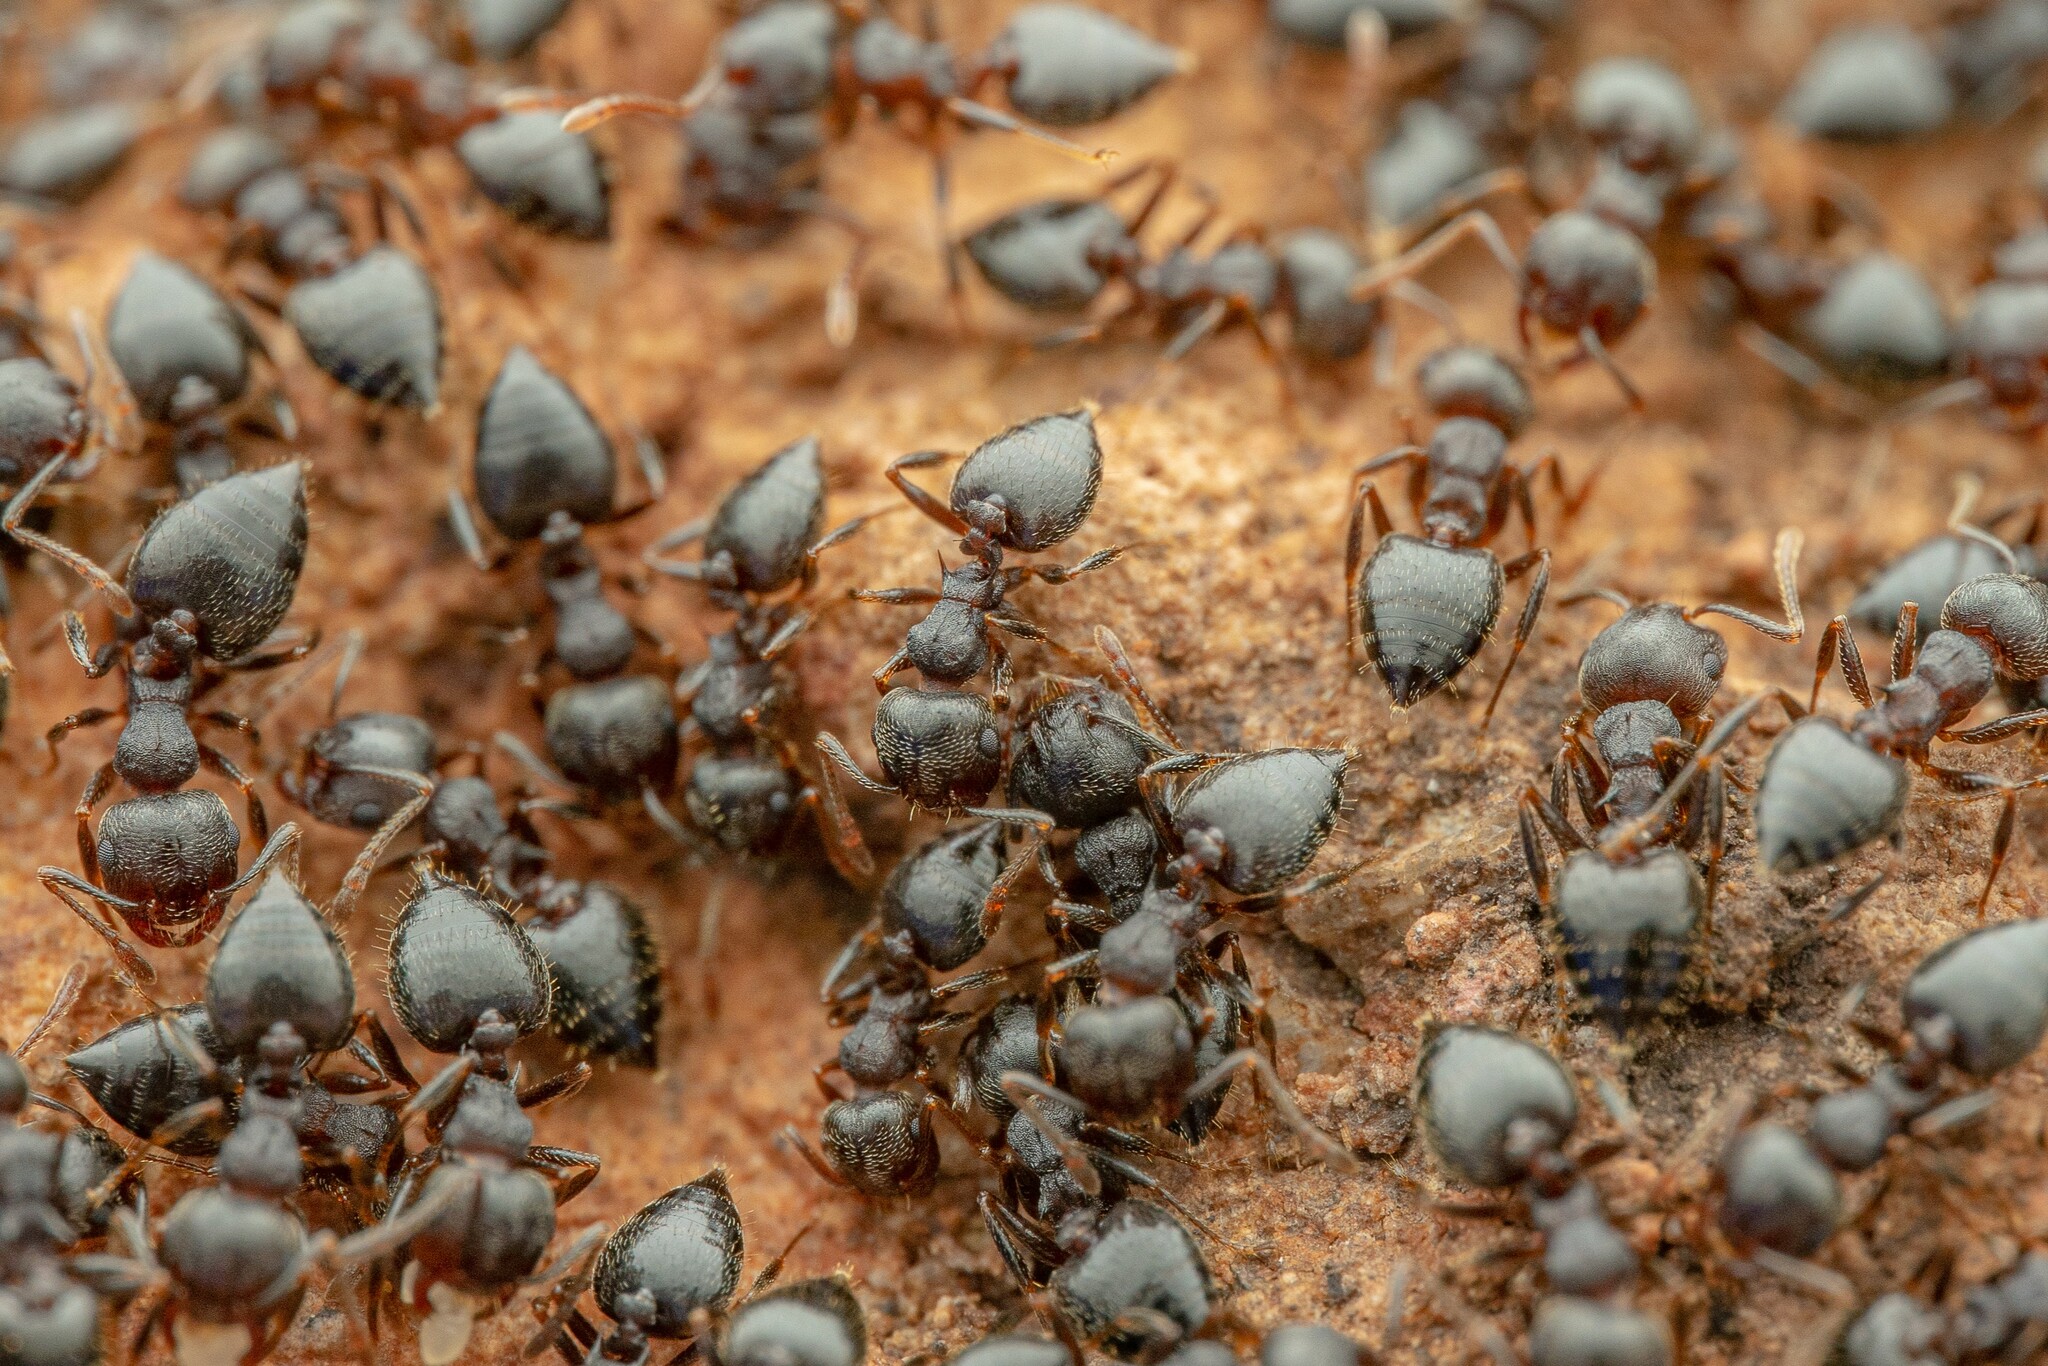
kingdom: Animalia
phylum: Arthropoda
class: Insecta
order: Hymenoptera
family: Formicidae
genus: Crematogaster
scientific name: Crematogaster dentinodis
